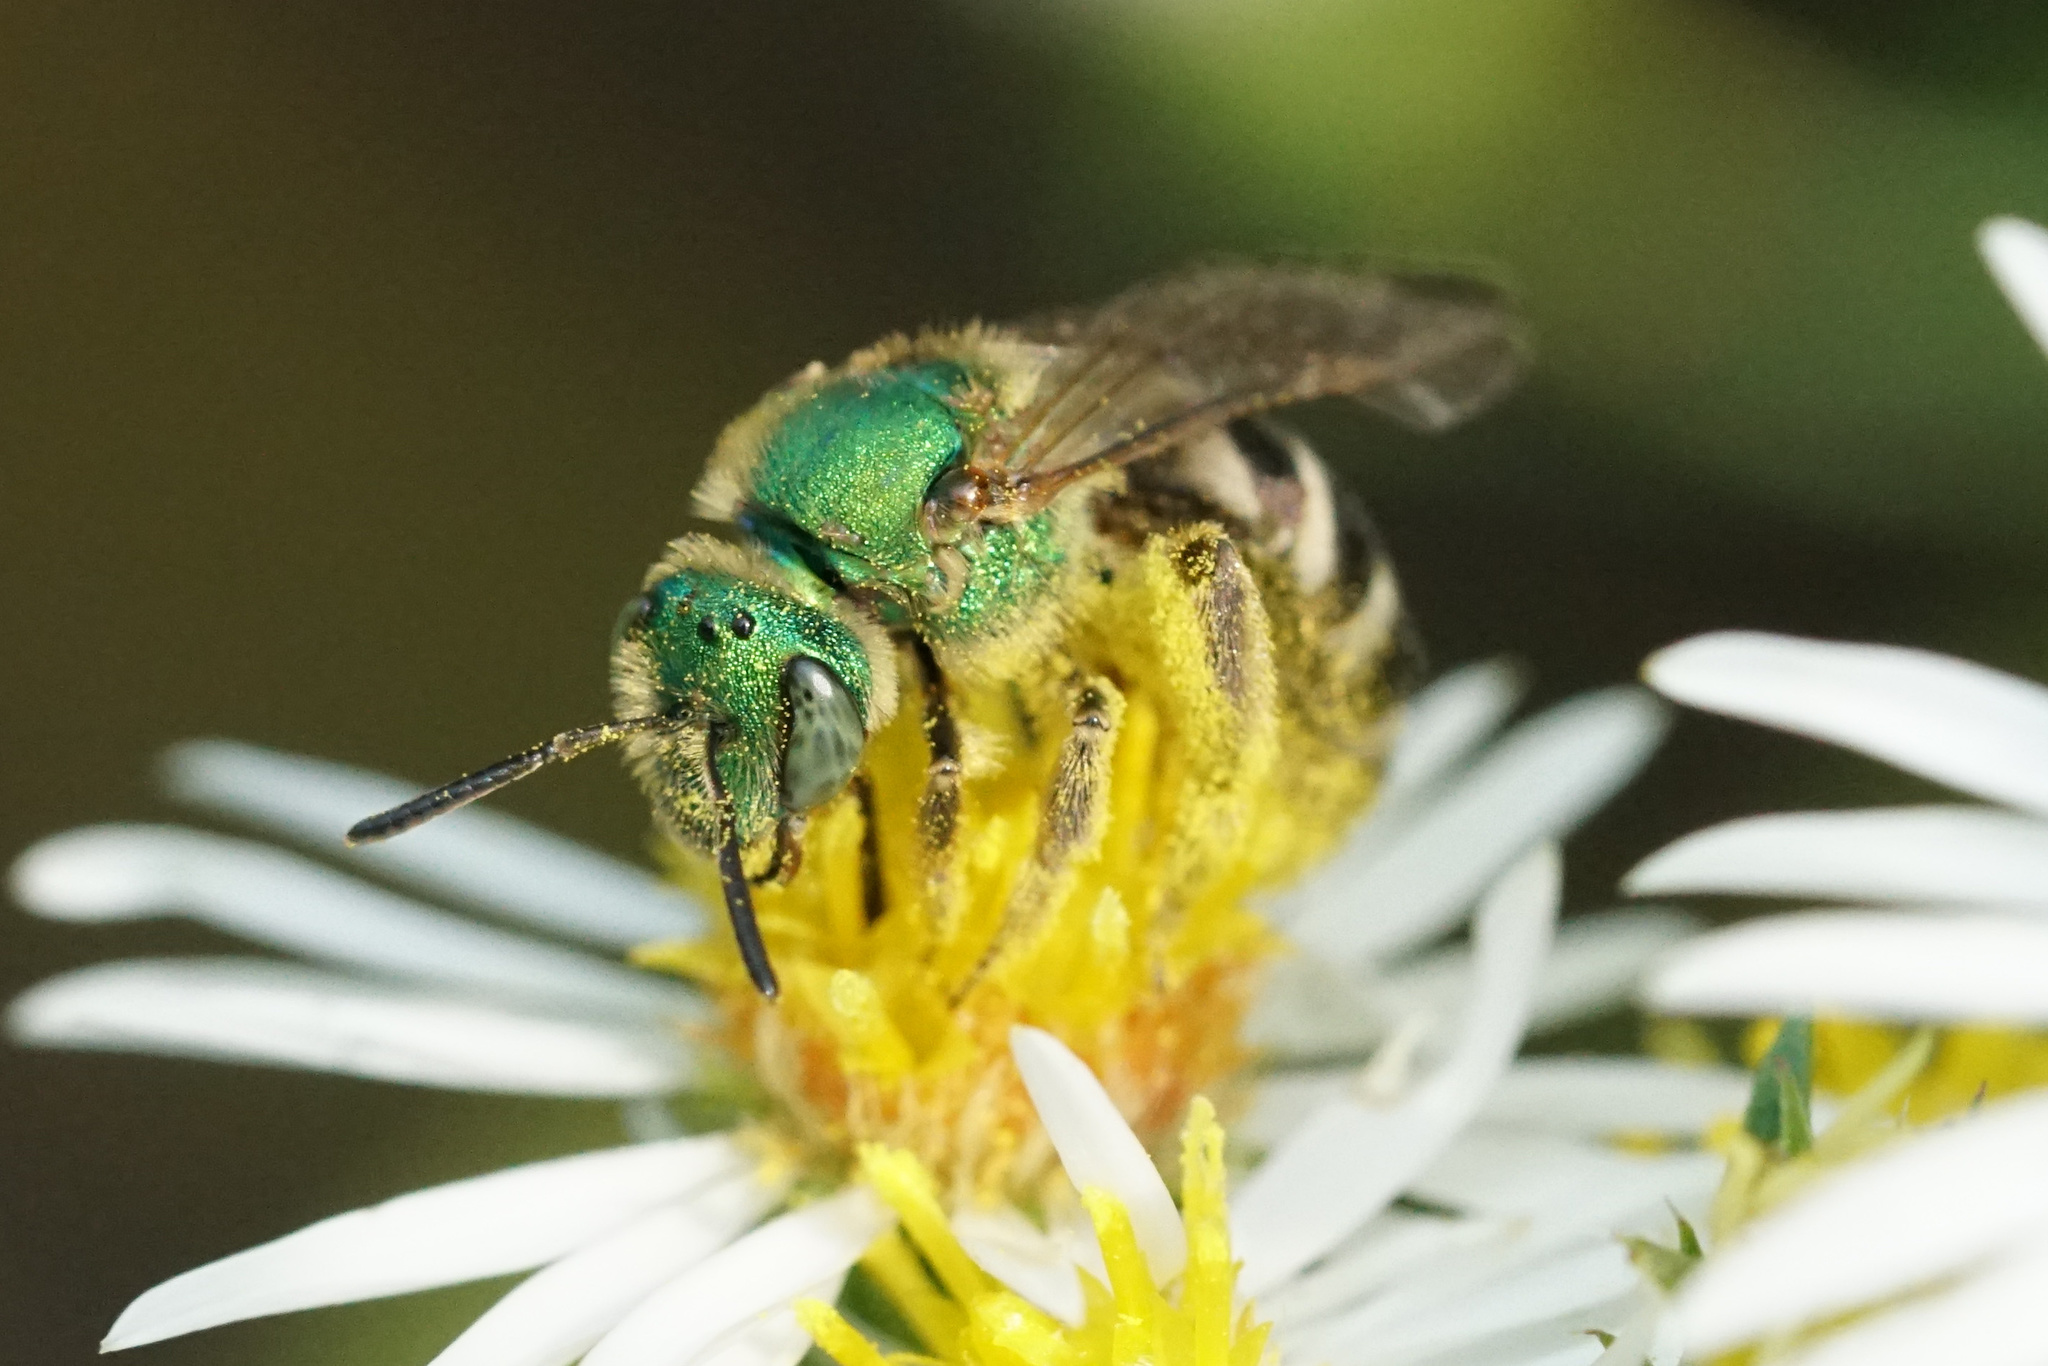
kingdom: Animalia
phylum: Arthropoda
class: Insecta
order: Hymenoptera
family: Halictidae
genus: Agapostemon
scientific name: Agapostemon virescens
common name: Bicolored striped sweat bee
